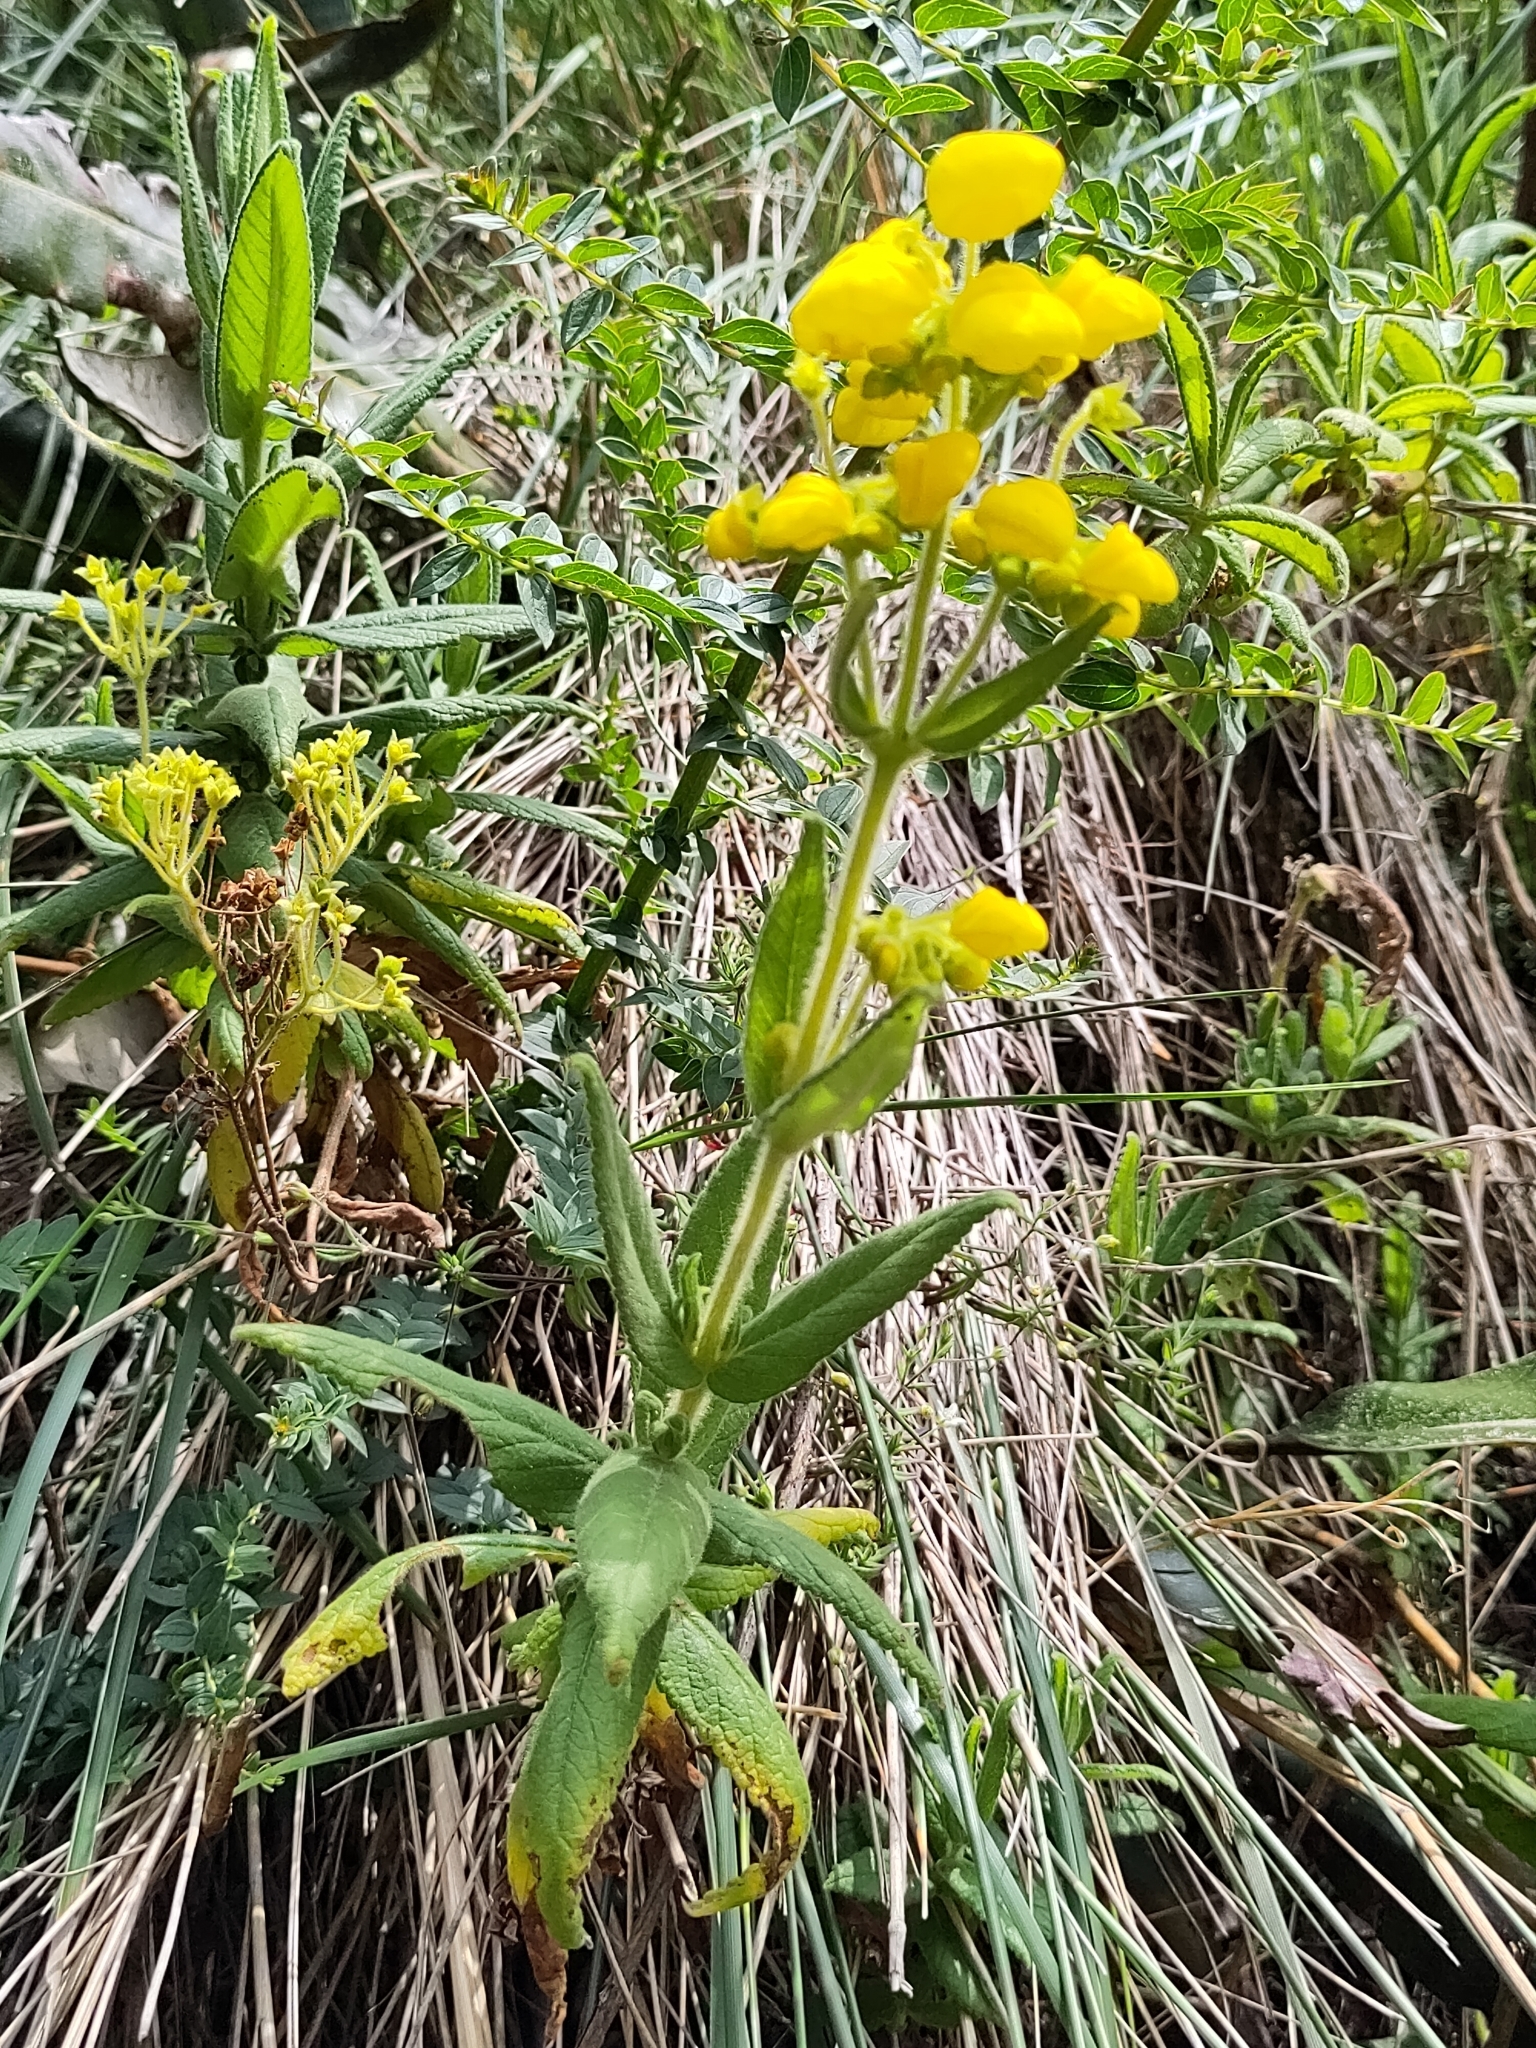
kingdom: Plantae
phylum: Tracheophyta
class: Magnoliopsida
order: Lamiales
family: Calceolariaceae
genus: Calceolaria
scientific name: Calceolaria crenata
